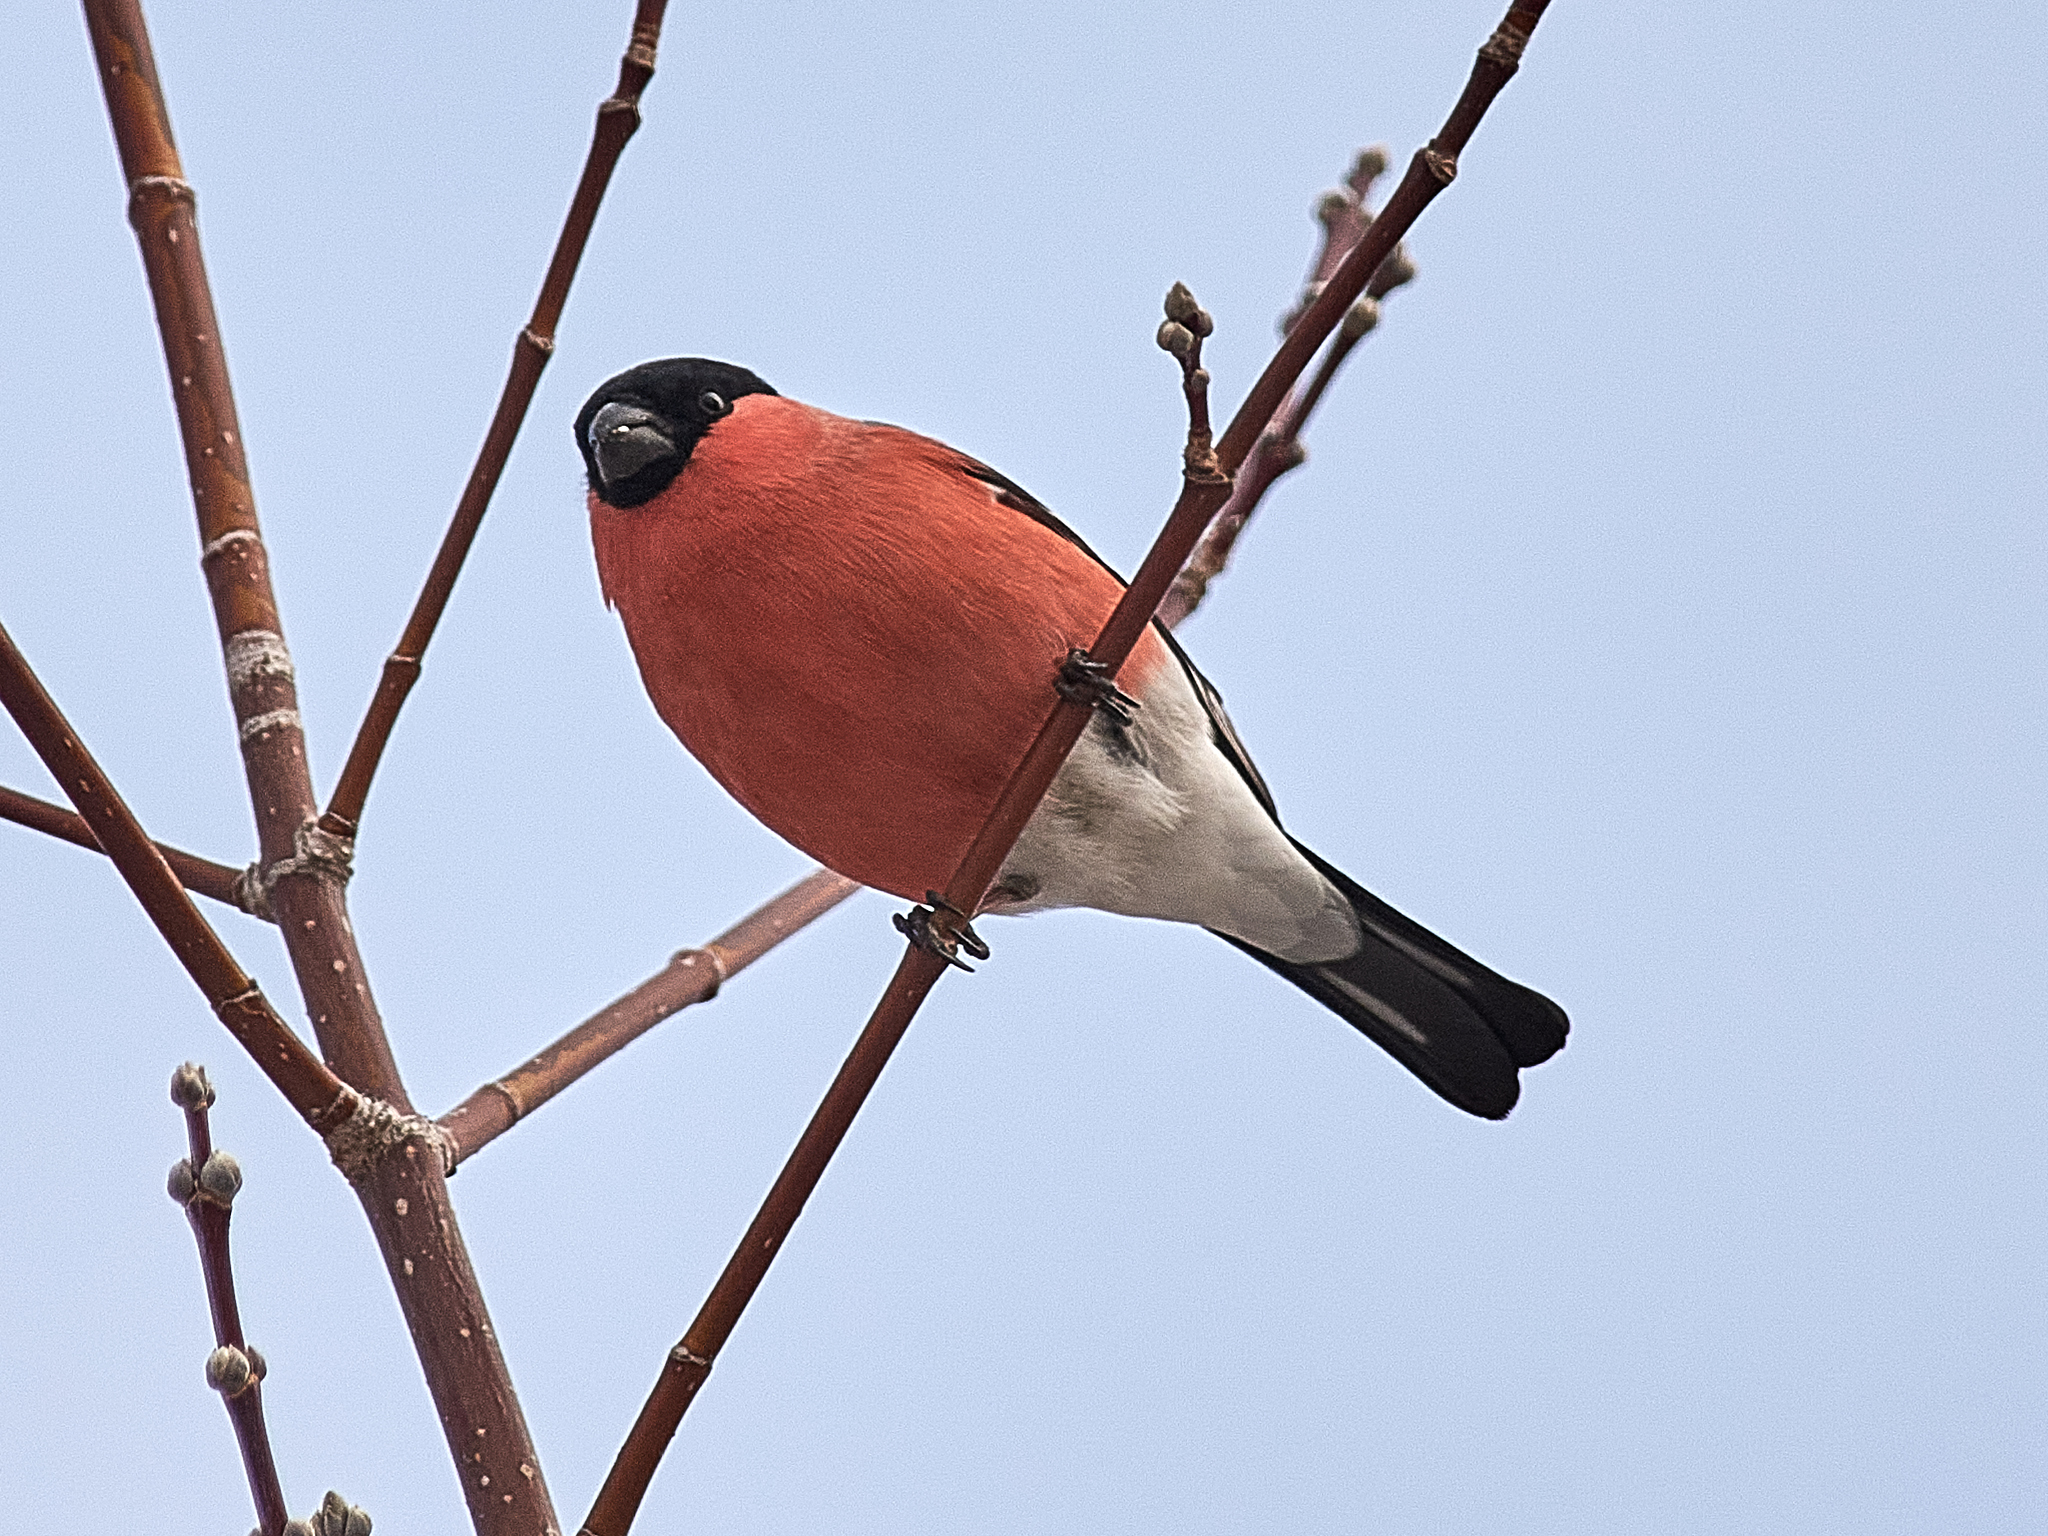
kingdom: Animalia
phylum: Chordata
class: Aves
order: Passeriformes
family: Fringillidae
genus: Pyrrhula
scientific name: Pyrrhula pyrrhula
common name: Eurasian bullfinch
